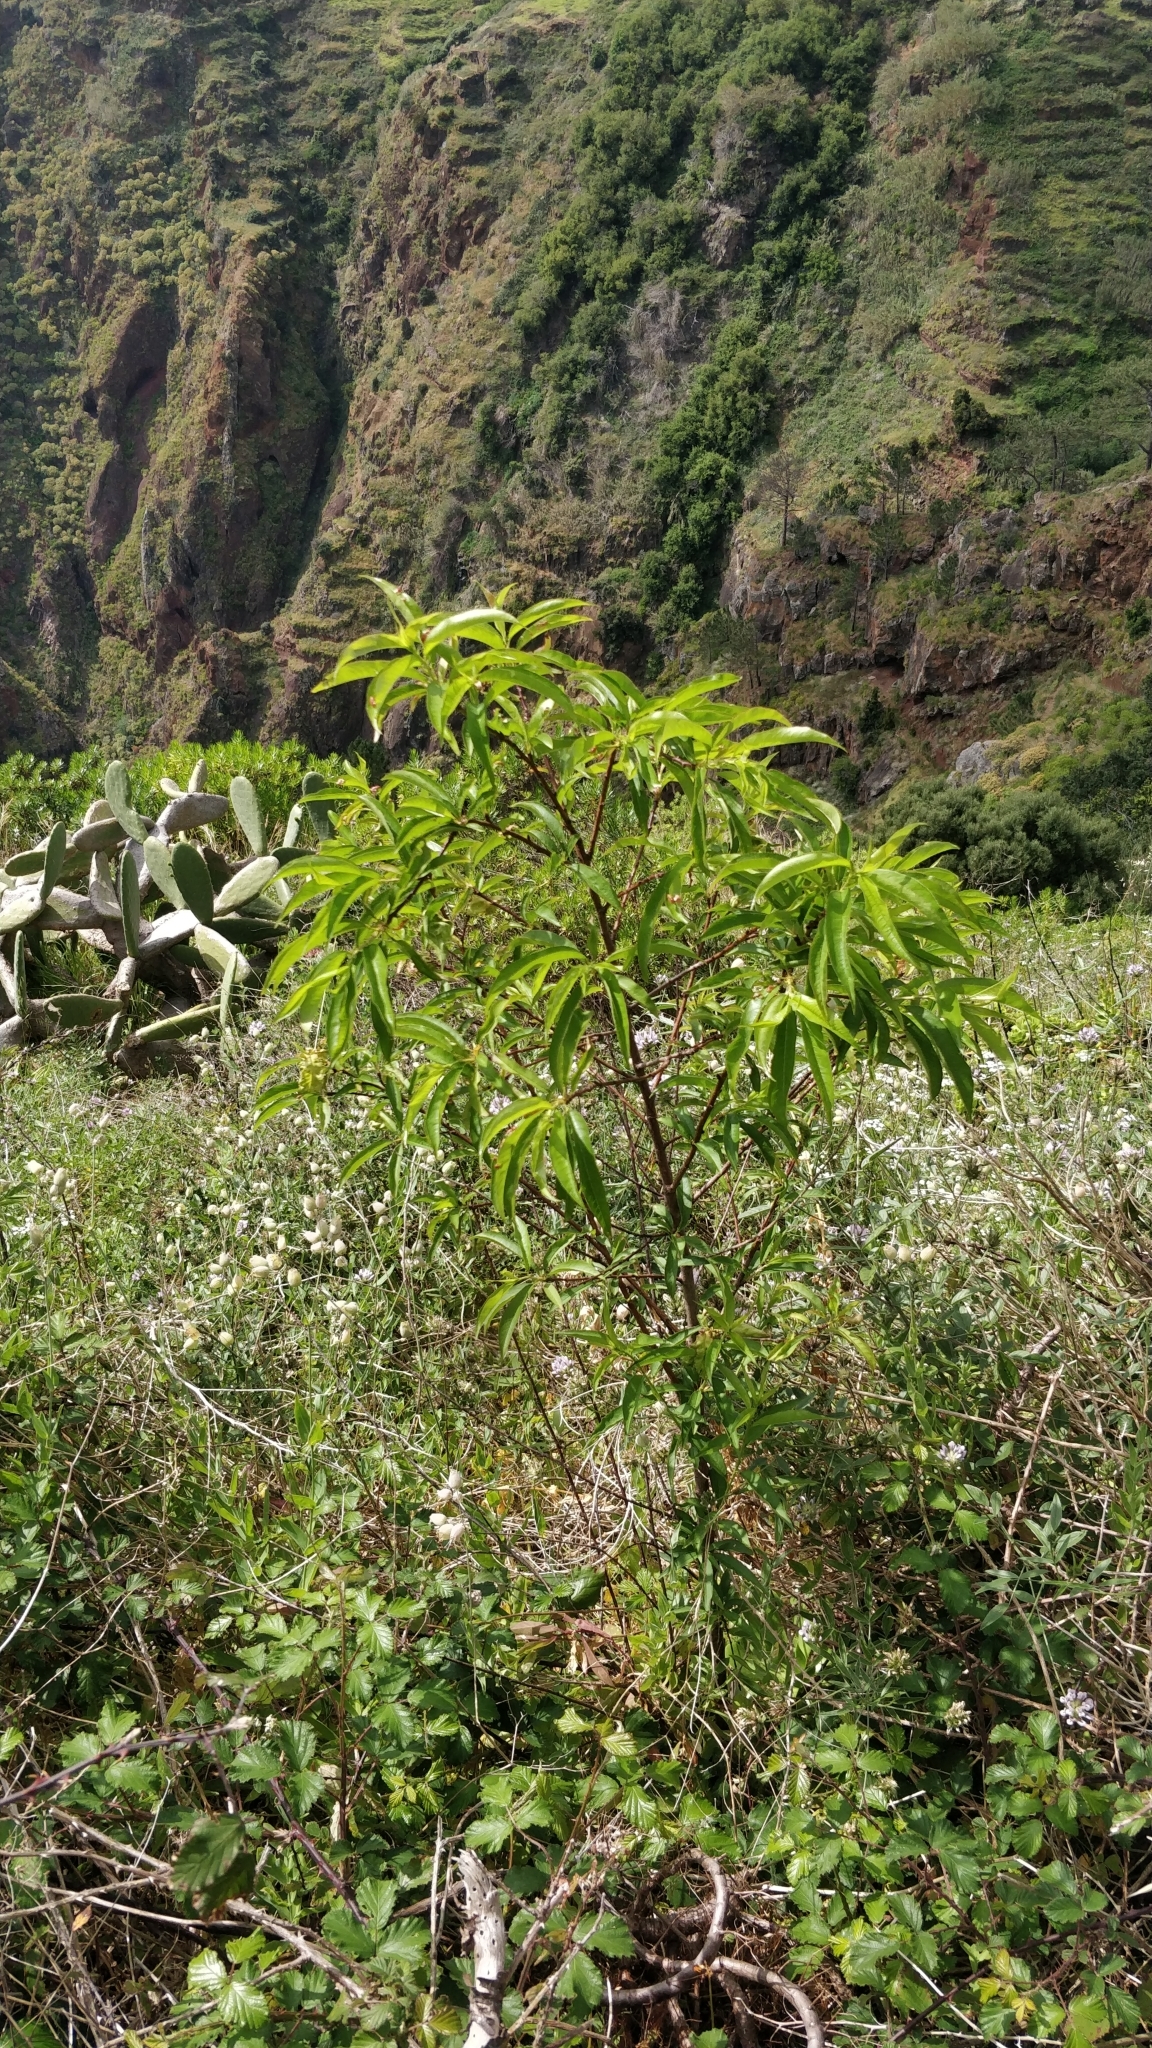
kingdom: Plantae
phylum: Tracheophyta
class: Magnoliopsida
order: Rosales
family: Rosaceae
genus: Prunus
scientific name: Prunus persica
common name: Peach
